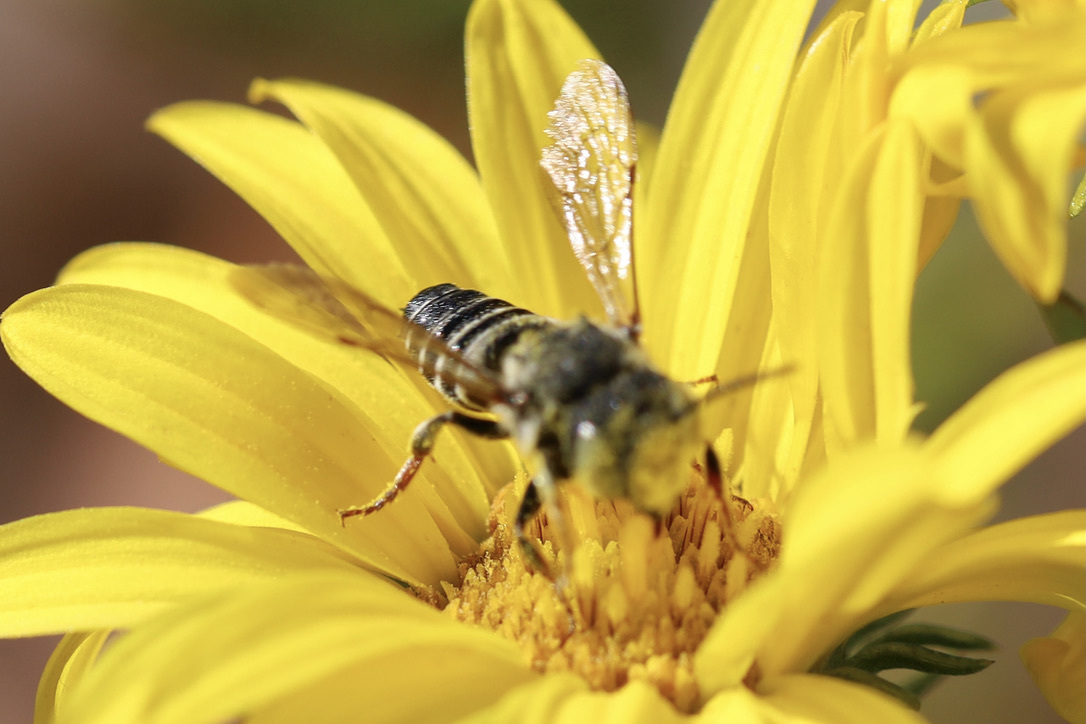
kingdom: Animalia
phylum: Arthropoda
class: Insecta
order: Hymenoptera
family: Megachilidae
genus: Coelioxys
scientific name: Coelioxys rufitarsis
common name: Red-footed sharptail
